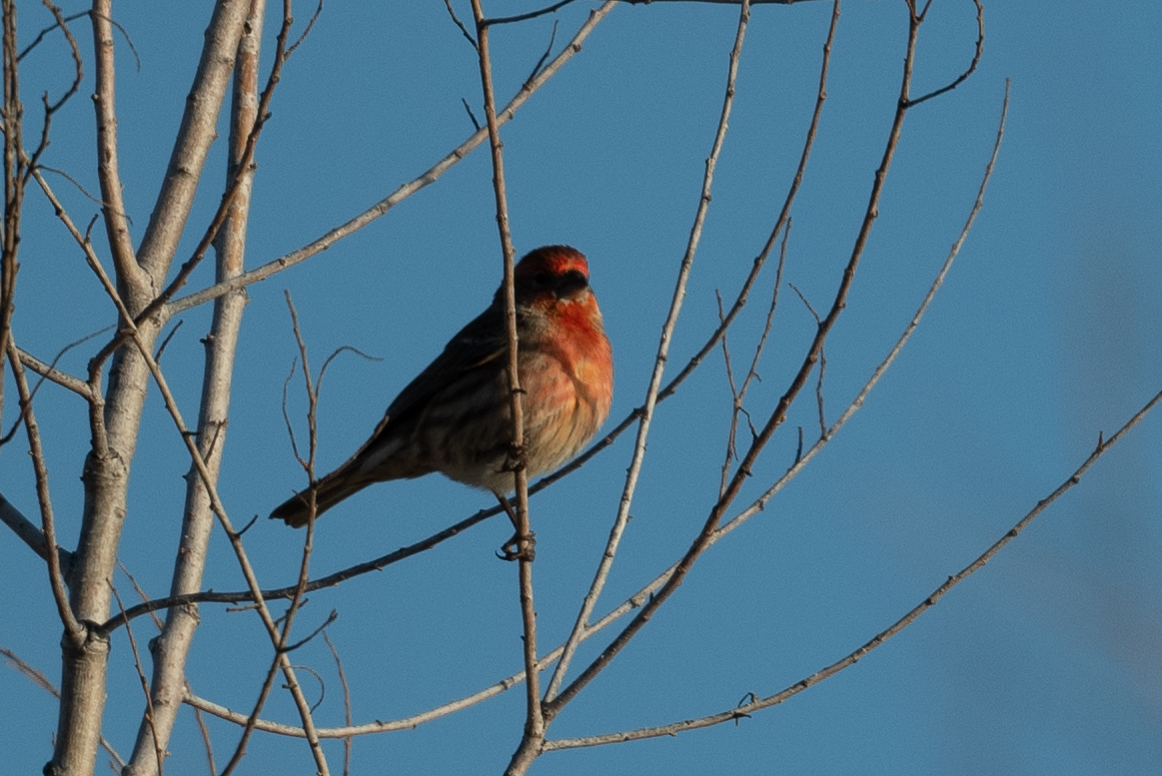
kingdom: Animalia
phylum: Chordata
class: Aves
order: Passeriformes
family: Fringillidae
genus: Haemorhous
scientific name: Haemorhous mexicanus
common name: House finch
